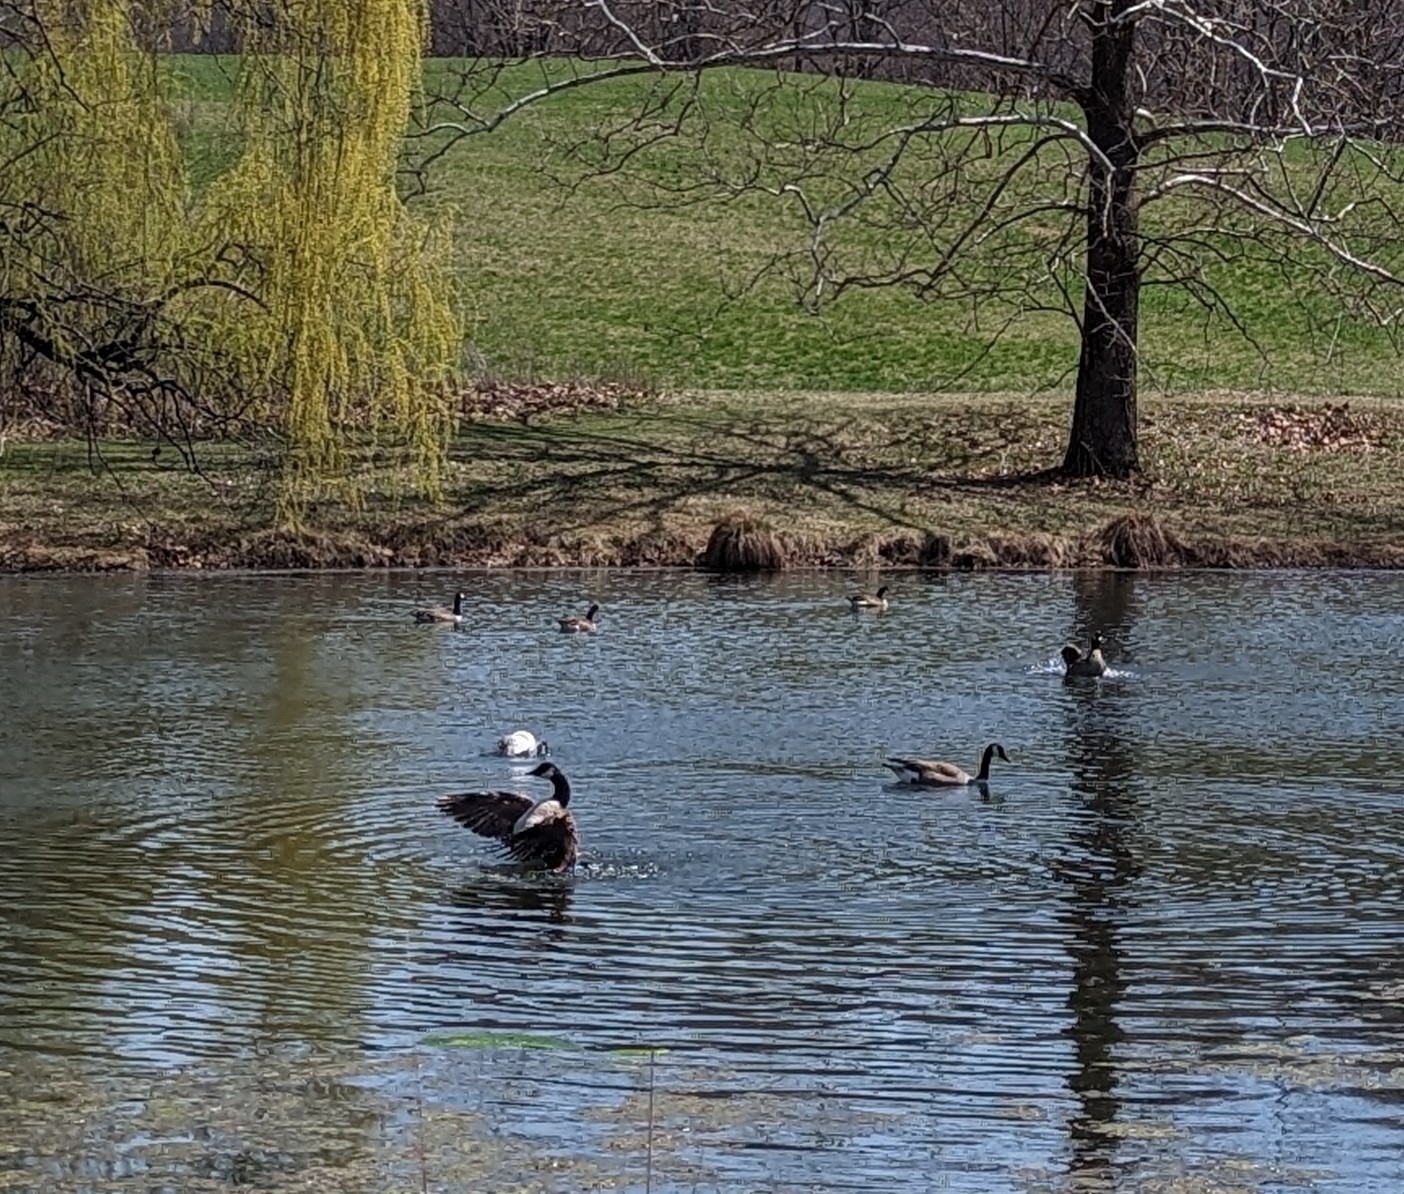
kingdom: Animalia
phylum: Chordata
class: Aves
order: Anseriformes
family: Anatidae
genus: Branta
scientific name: Branta canadensis
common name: Canada goose
